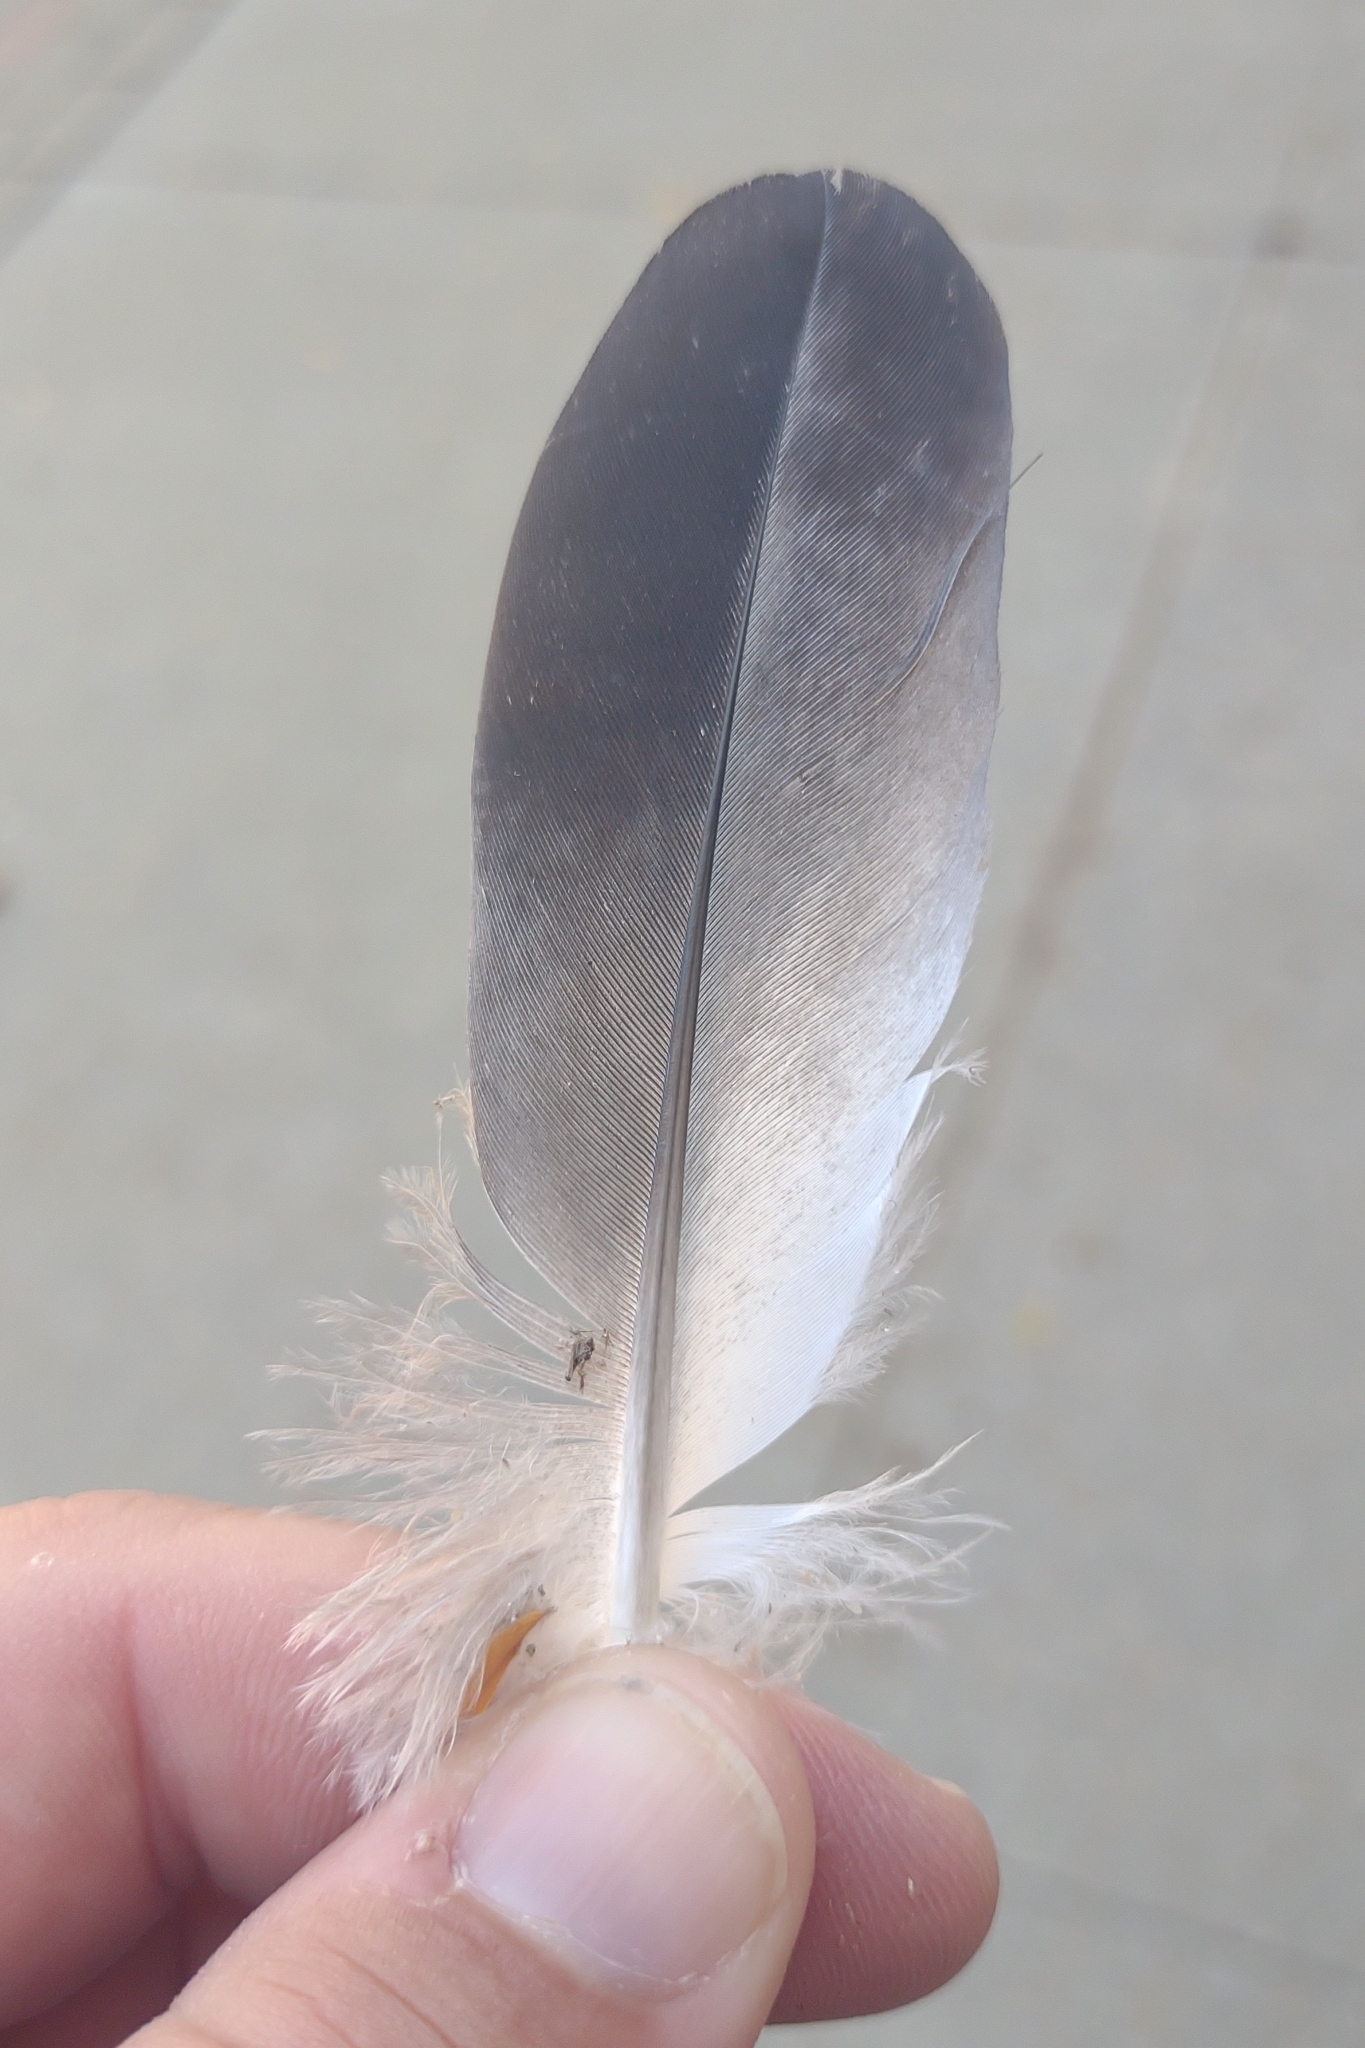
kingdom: Animalia
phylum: Chordata
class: Aves
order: Columbiformes
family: Columbidae
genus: Columba
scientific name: Columba livia
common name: Rock pigeon
